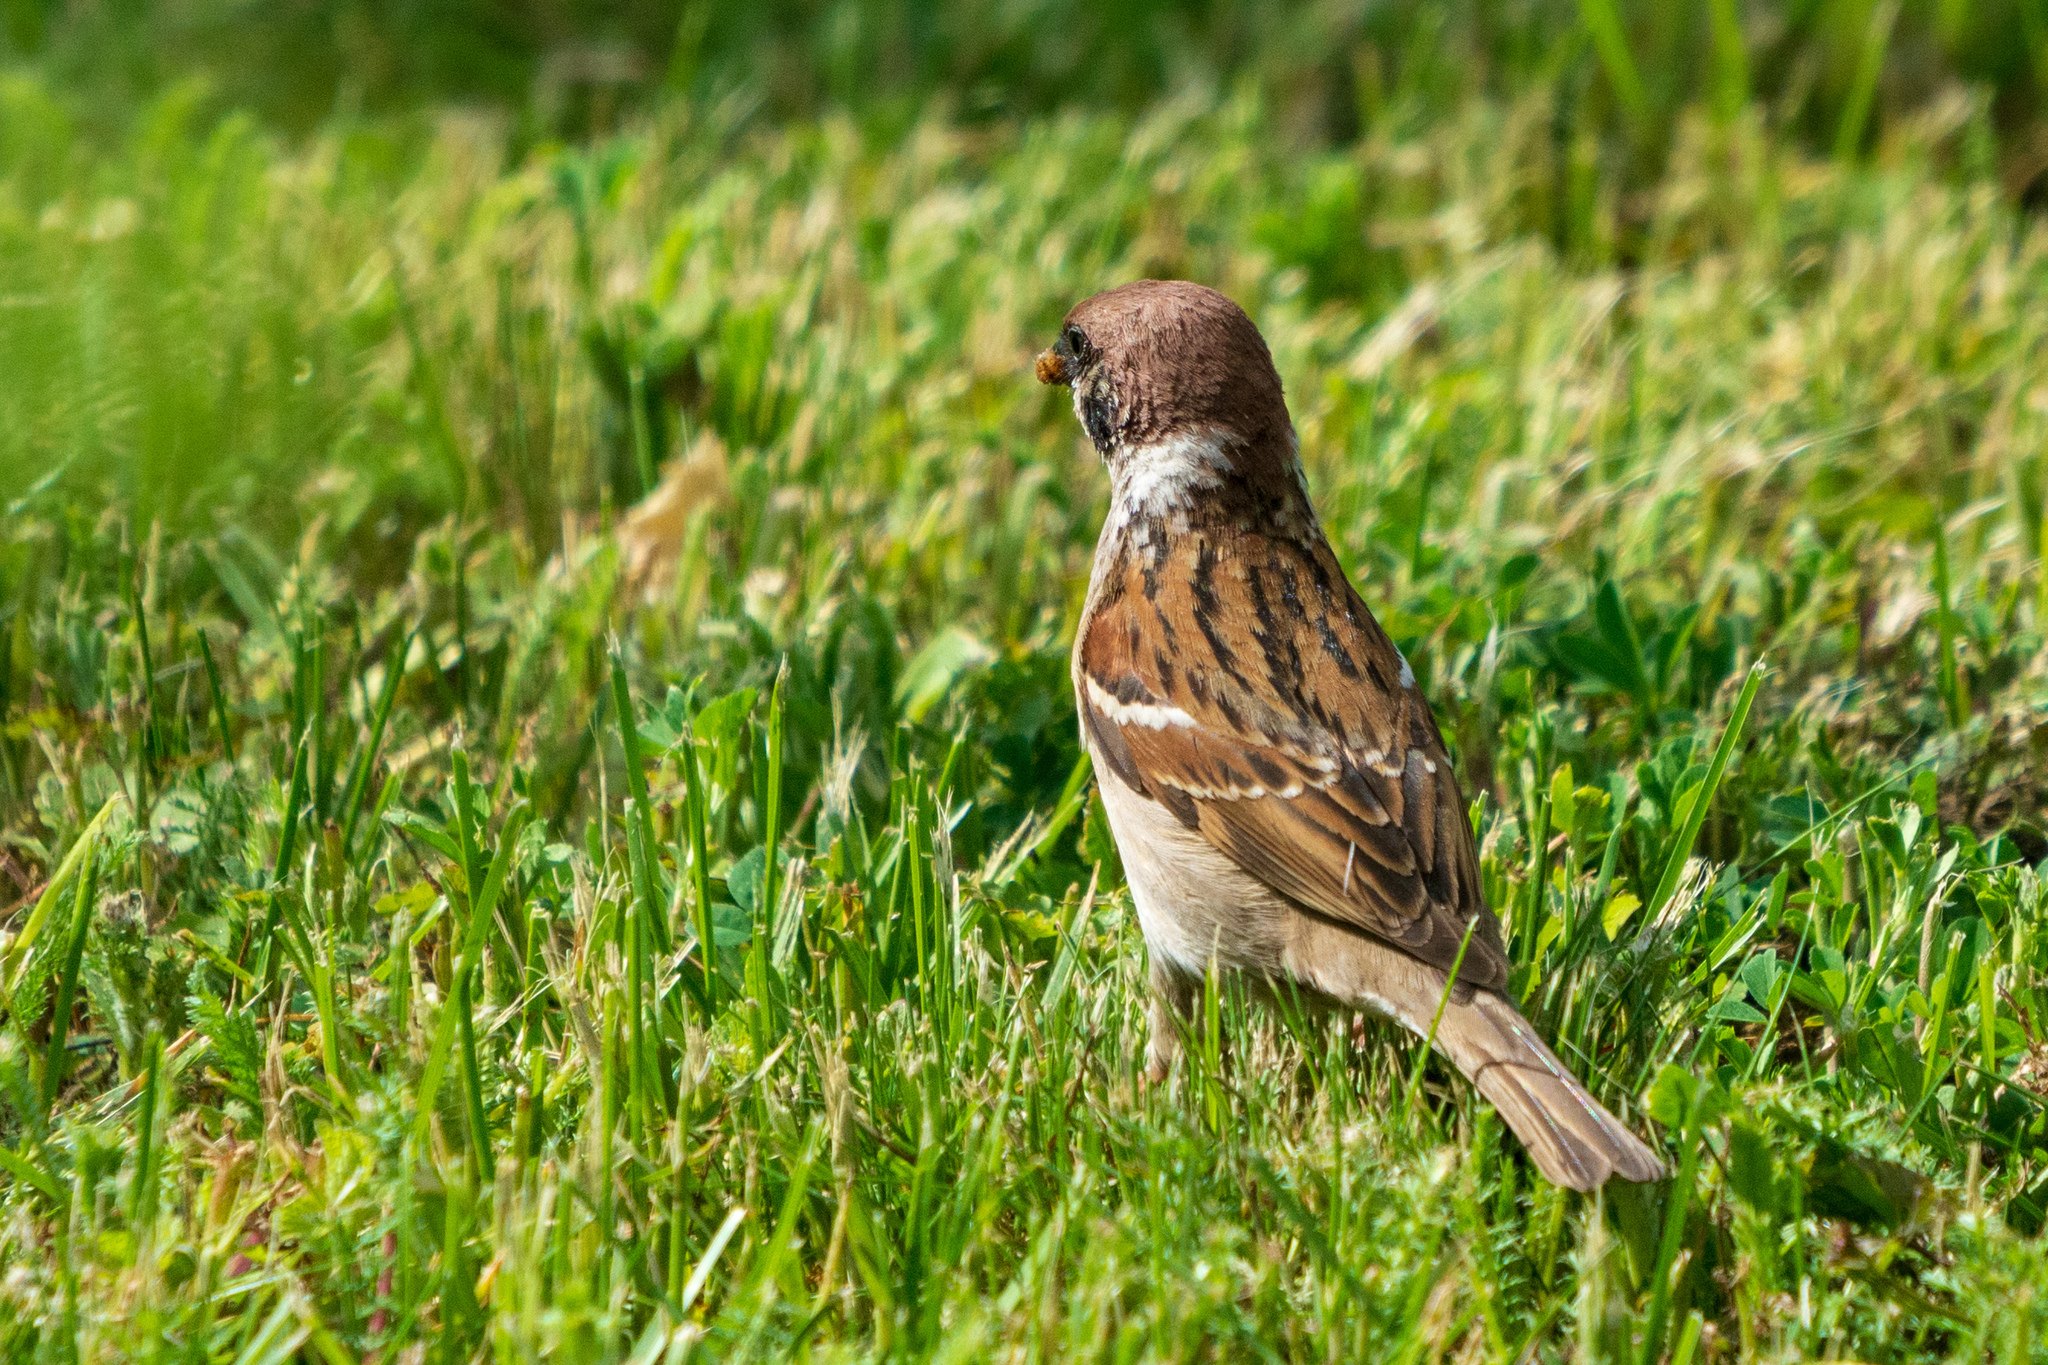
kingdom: Animalia
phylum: Chordata
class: Aves
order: Passeriformes
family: Passeridae
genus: Passer
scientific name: Passer montanus
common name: Eurasian tree sparrow
